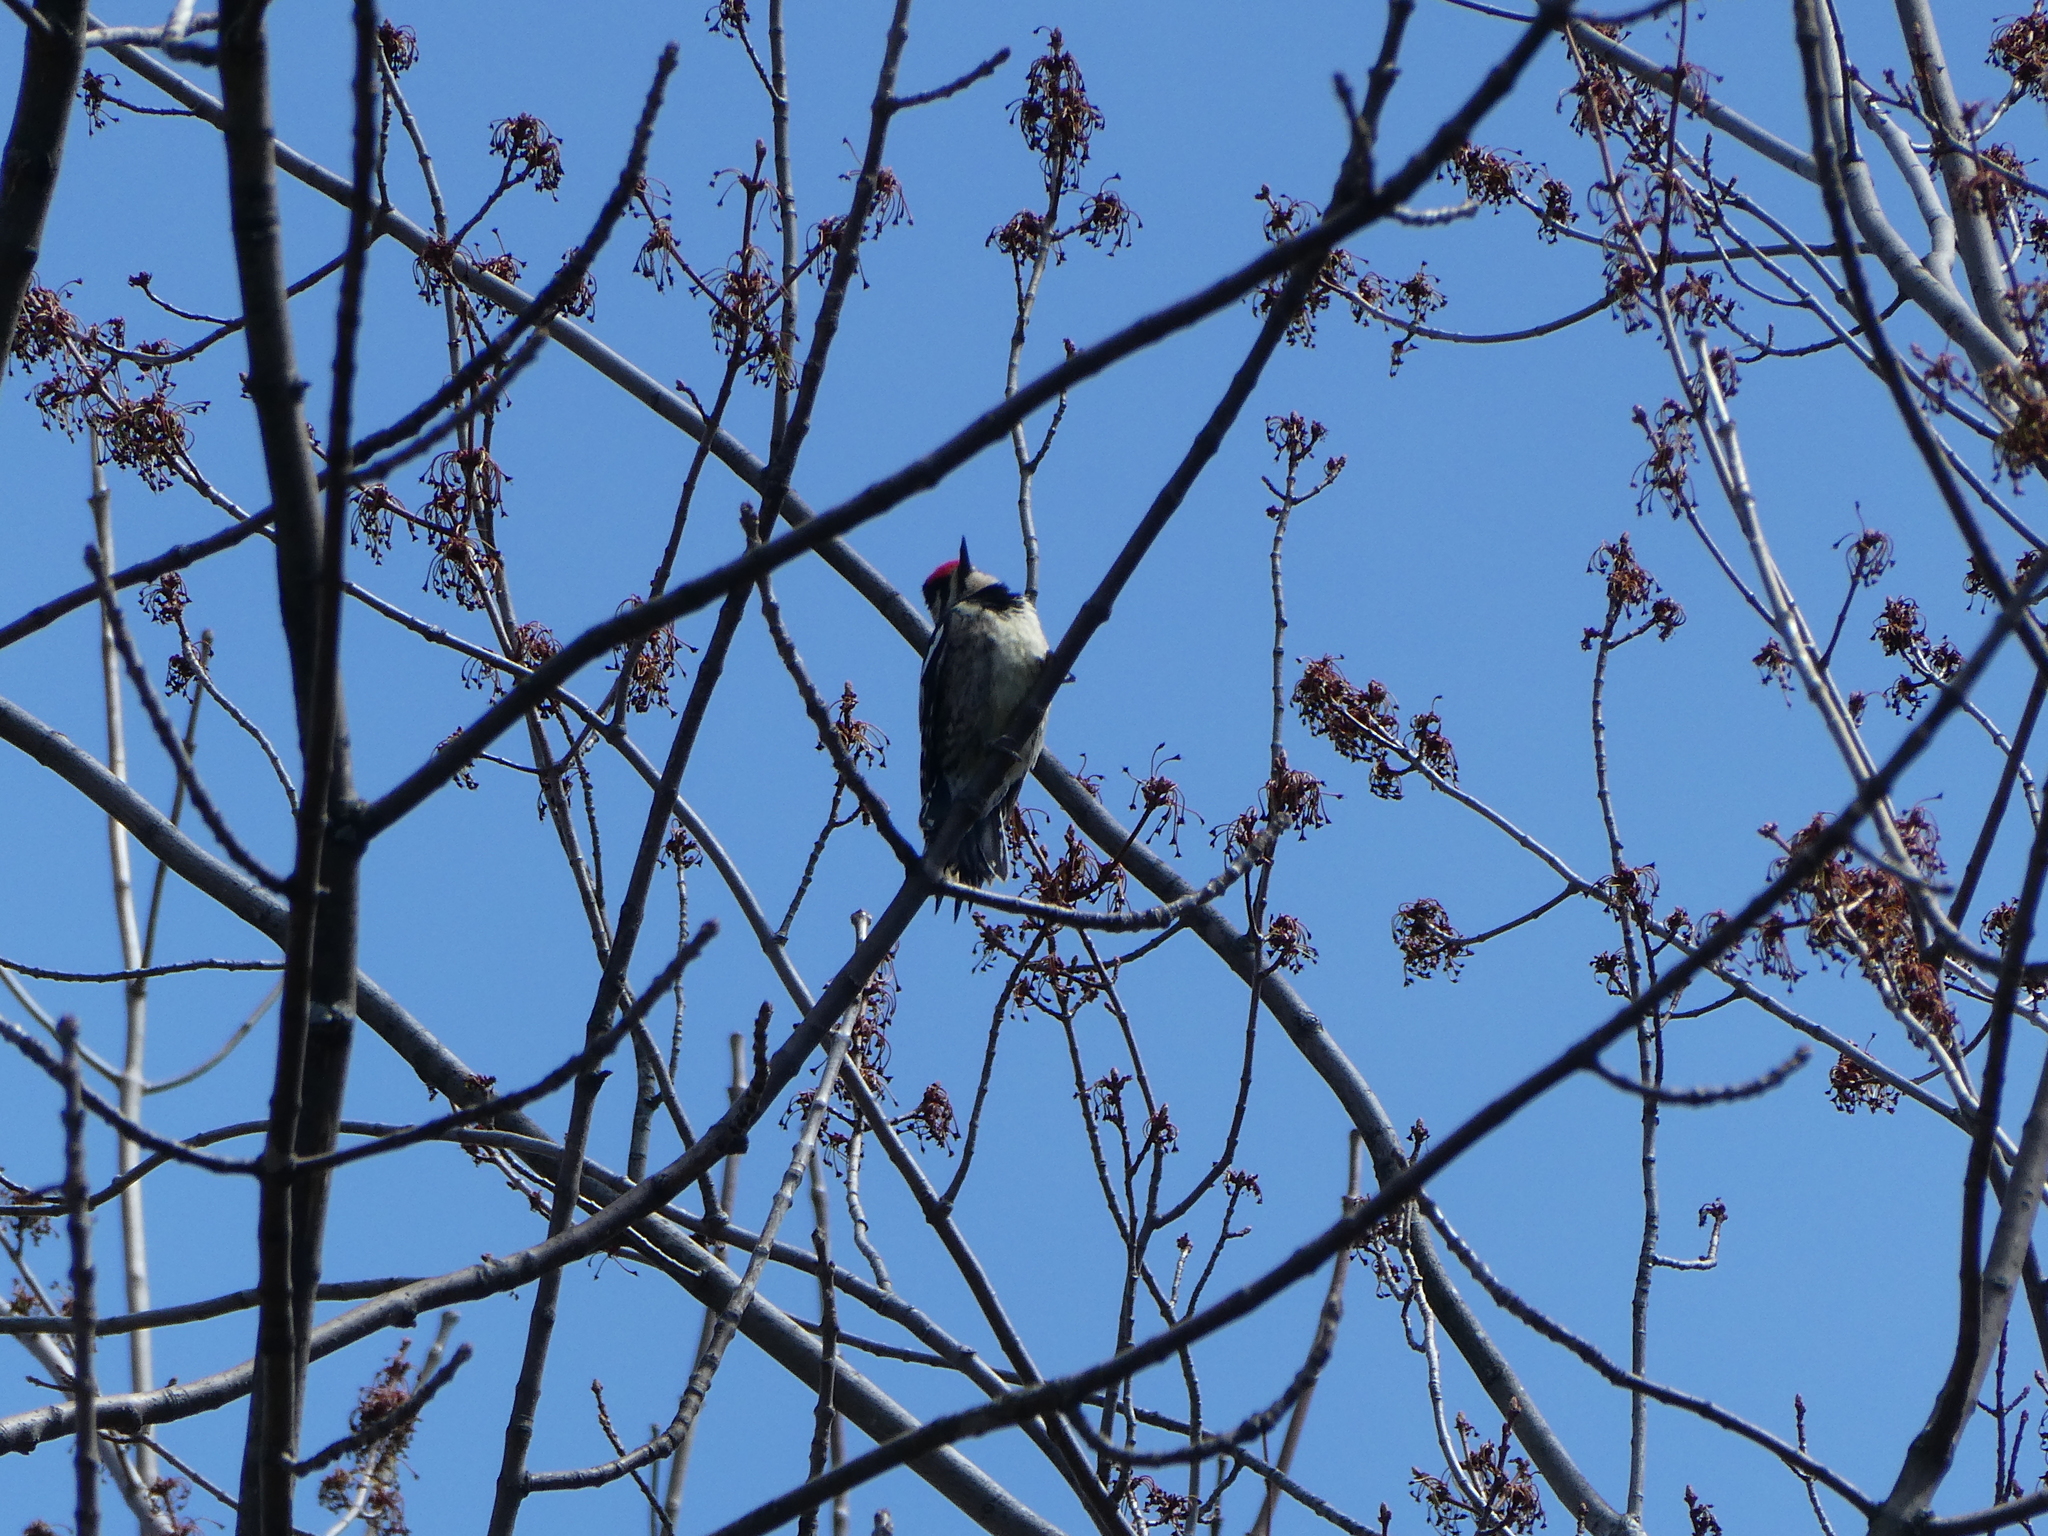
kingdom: Animalia
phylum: Chordata
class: Aves
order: Piciformes
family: Picidae
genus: Sphyrapicus
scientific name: Sphyrapicus varius
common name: Yellow-bellied sapsucker
